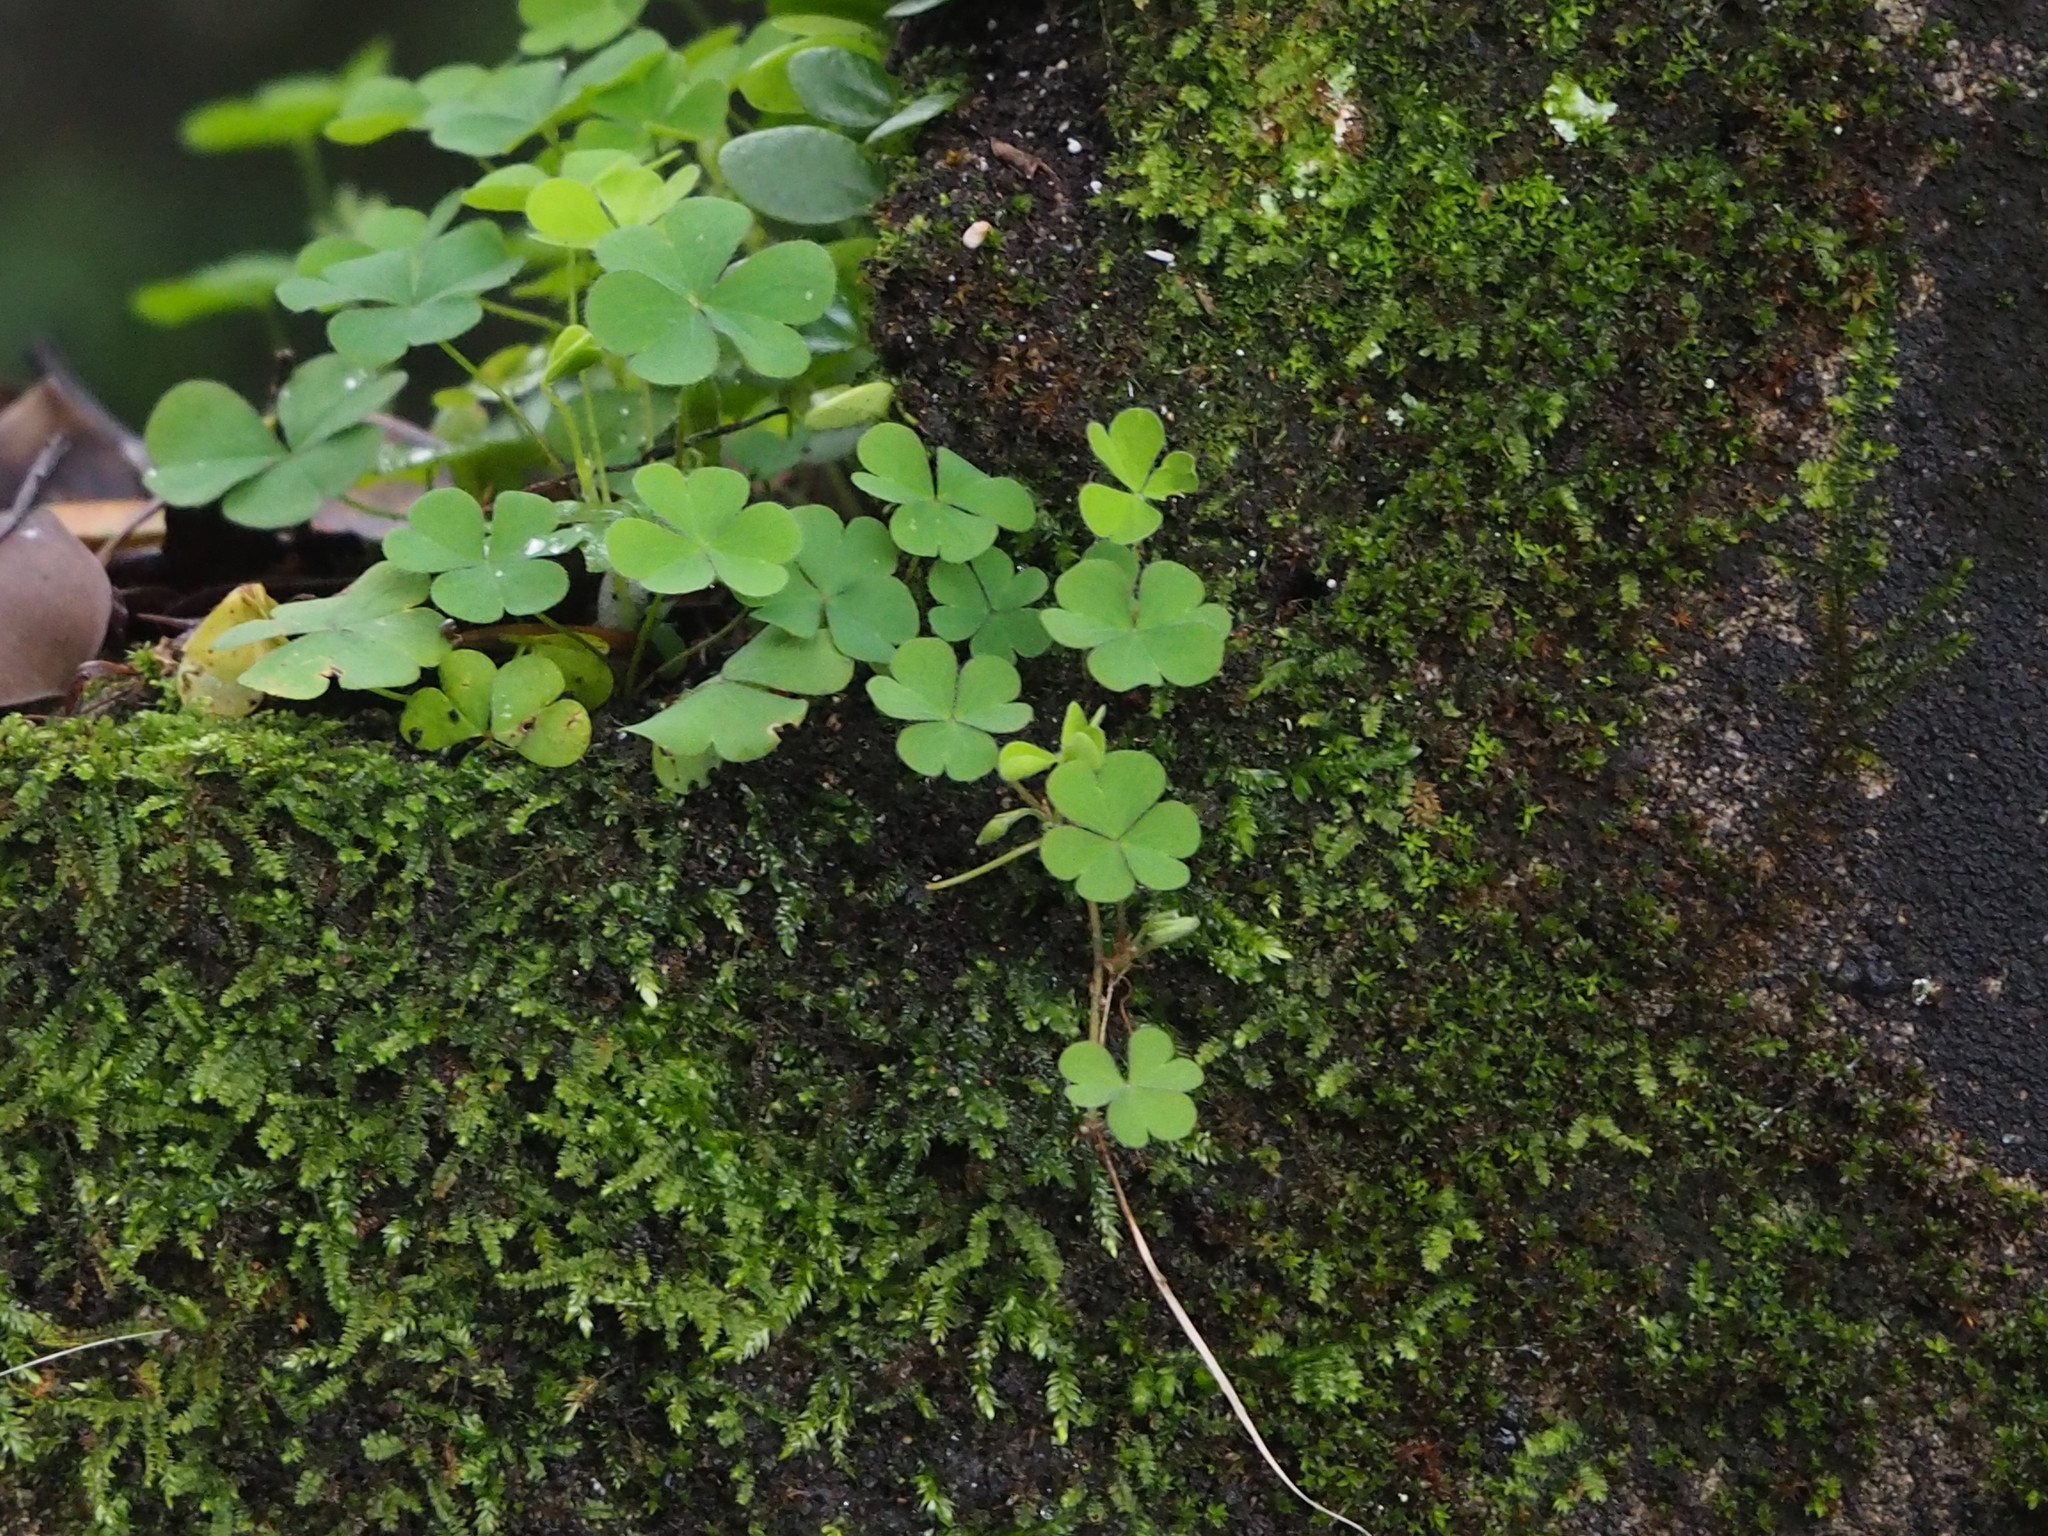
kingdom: Plantae
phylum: Tracheophyta
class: Magnoliopsida
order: Oxalidales
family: Oxalidaceae
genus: Oxalis
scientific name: Oxalis corniculata
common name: Procumbent yellow-sorrel
